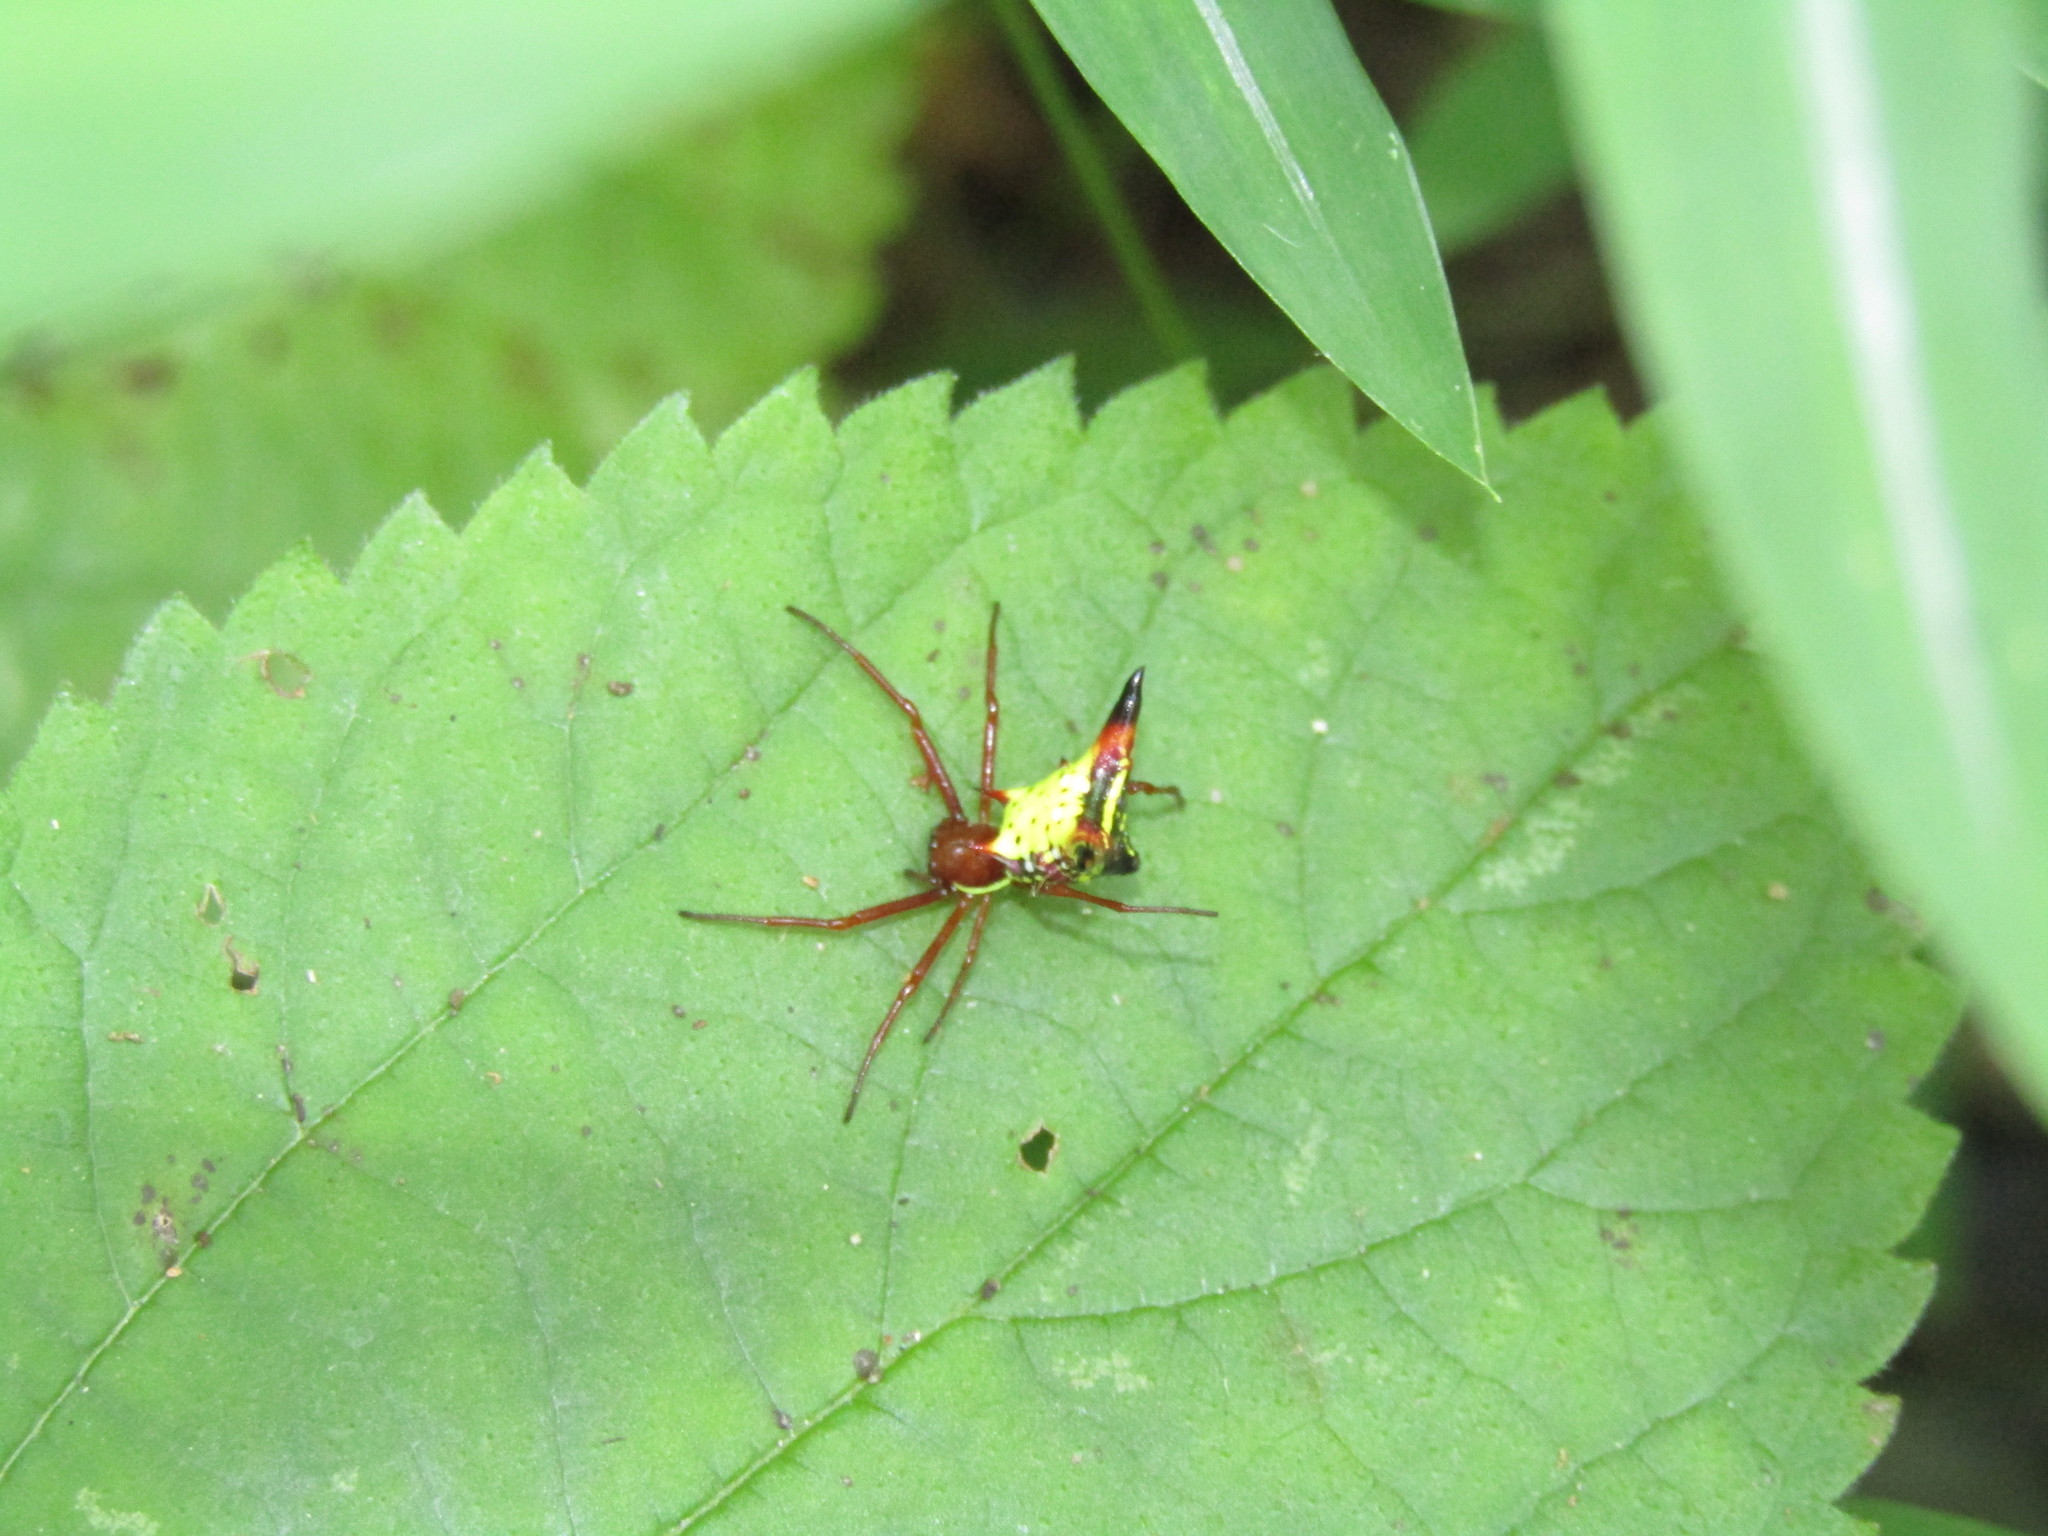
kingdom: Animalia
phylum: Arthropoda
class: Arachnida
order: Araneae
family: Araneidae
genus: Micrathena
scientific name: Micrathena sagittata
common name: Orb weavers
